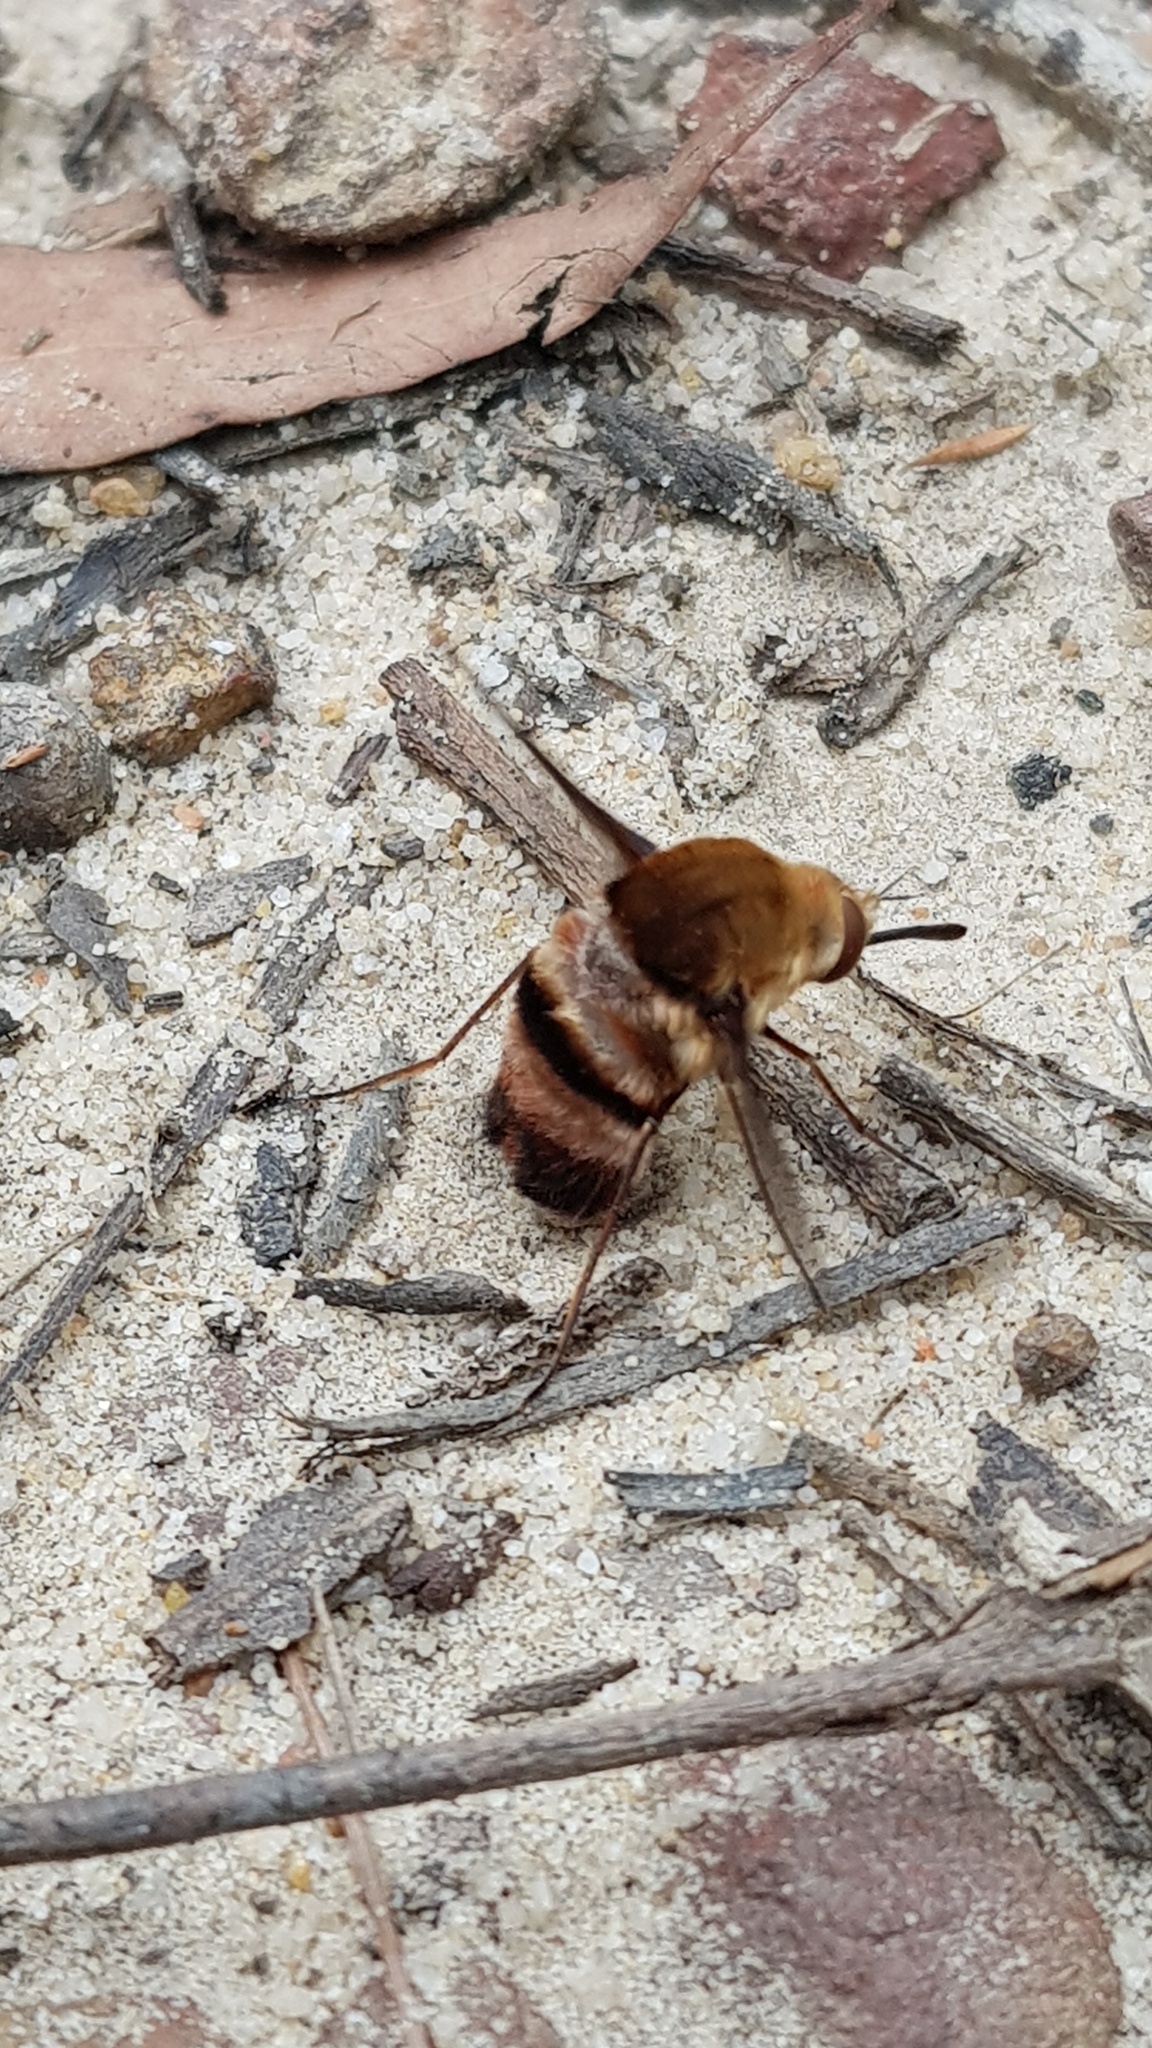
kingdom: Animalia
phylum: Arthropoda
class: Insecta
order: Diptera
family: Bombyliidae
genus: Meomyia
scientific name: Meomyia fasciculata
